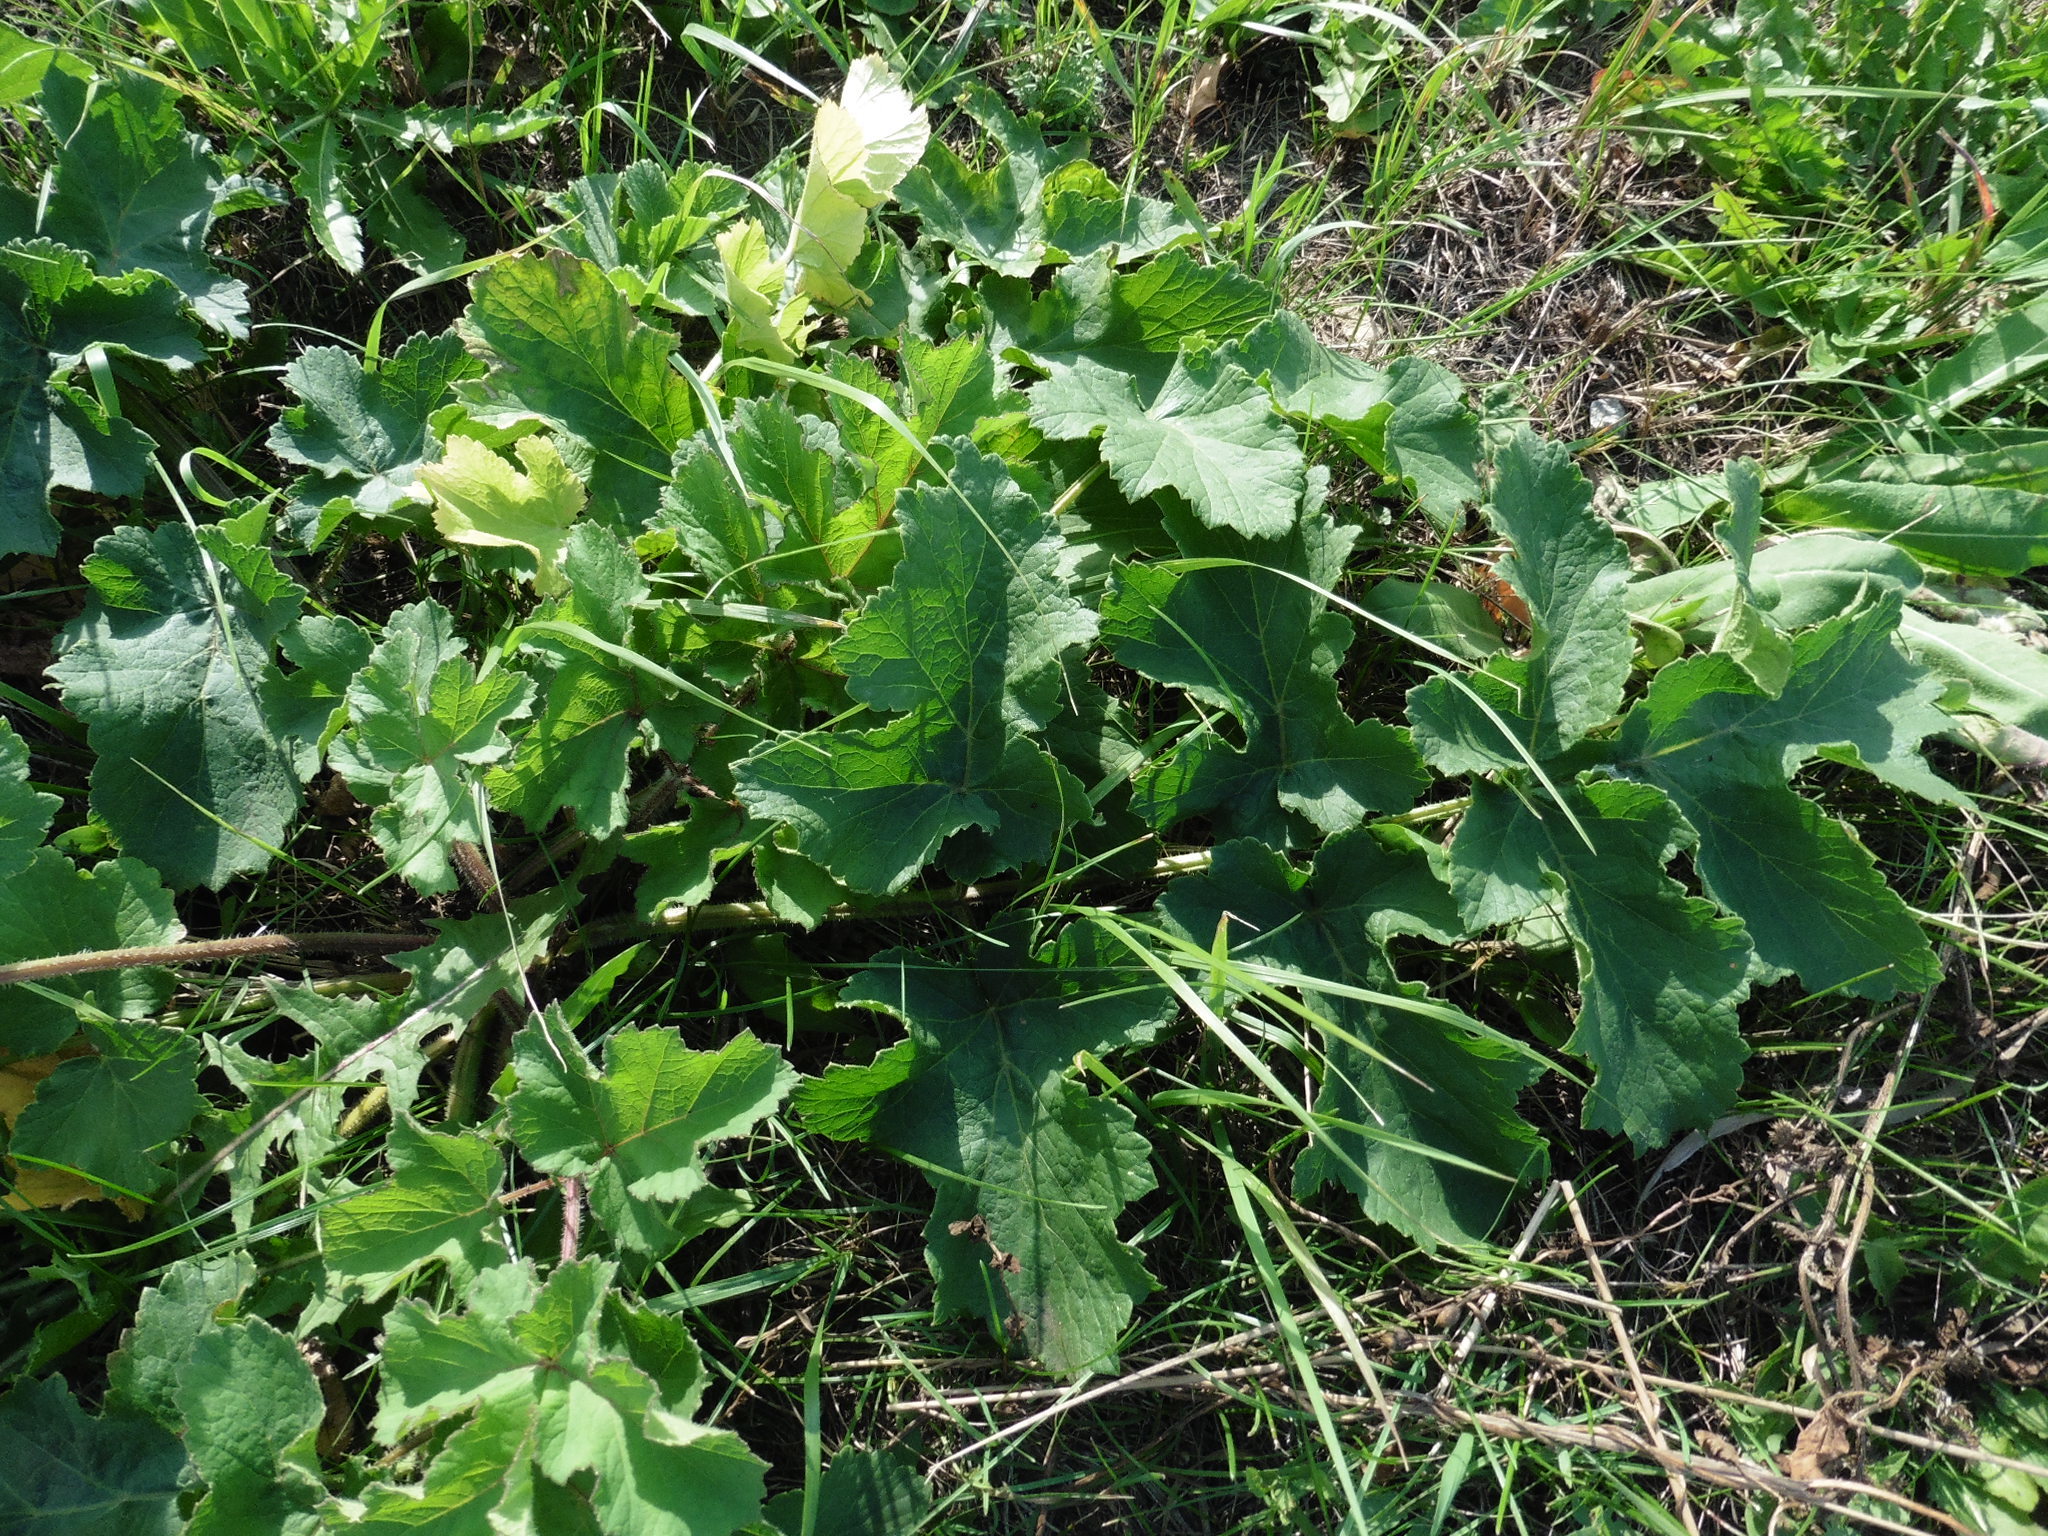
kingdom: Plantae
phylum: Tracheophyta
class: Magnoliopsida
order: Apiales
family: Apiaceae
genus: Heracleum
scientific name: Heracleum sphondylium
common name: Hogweed
